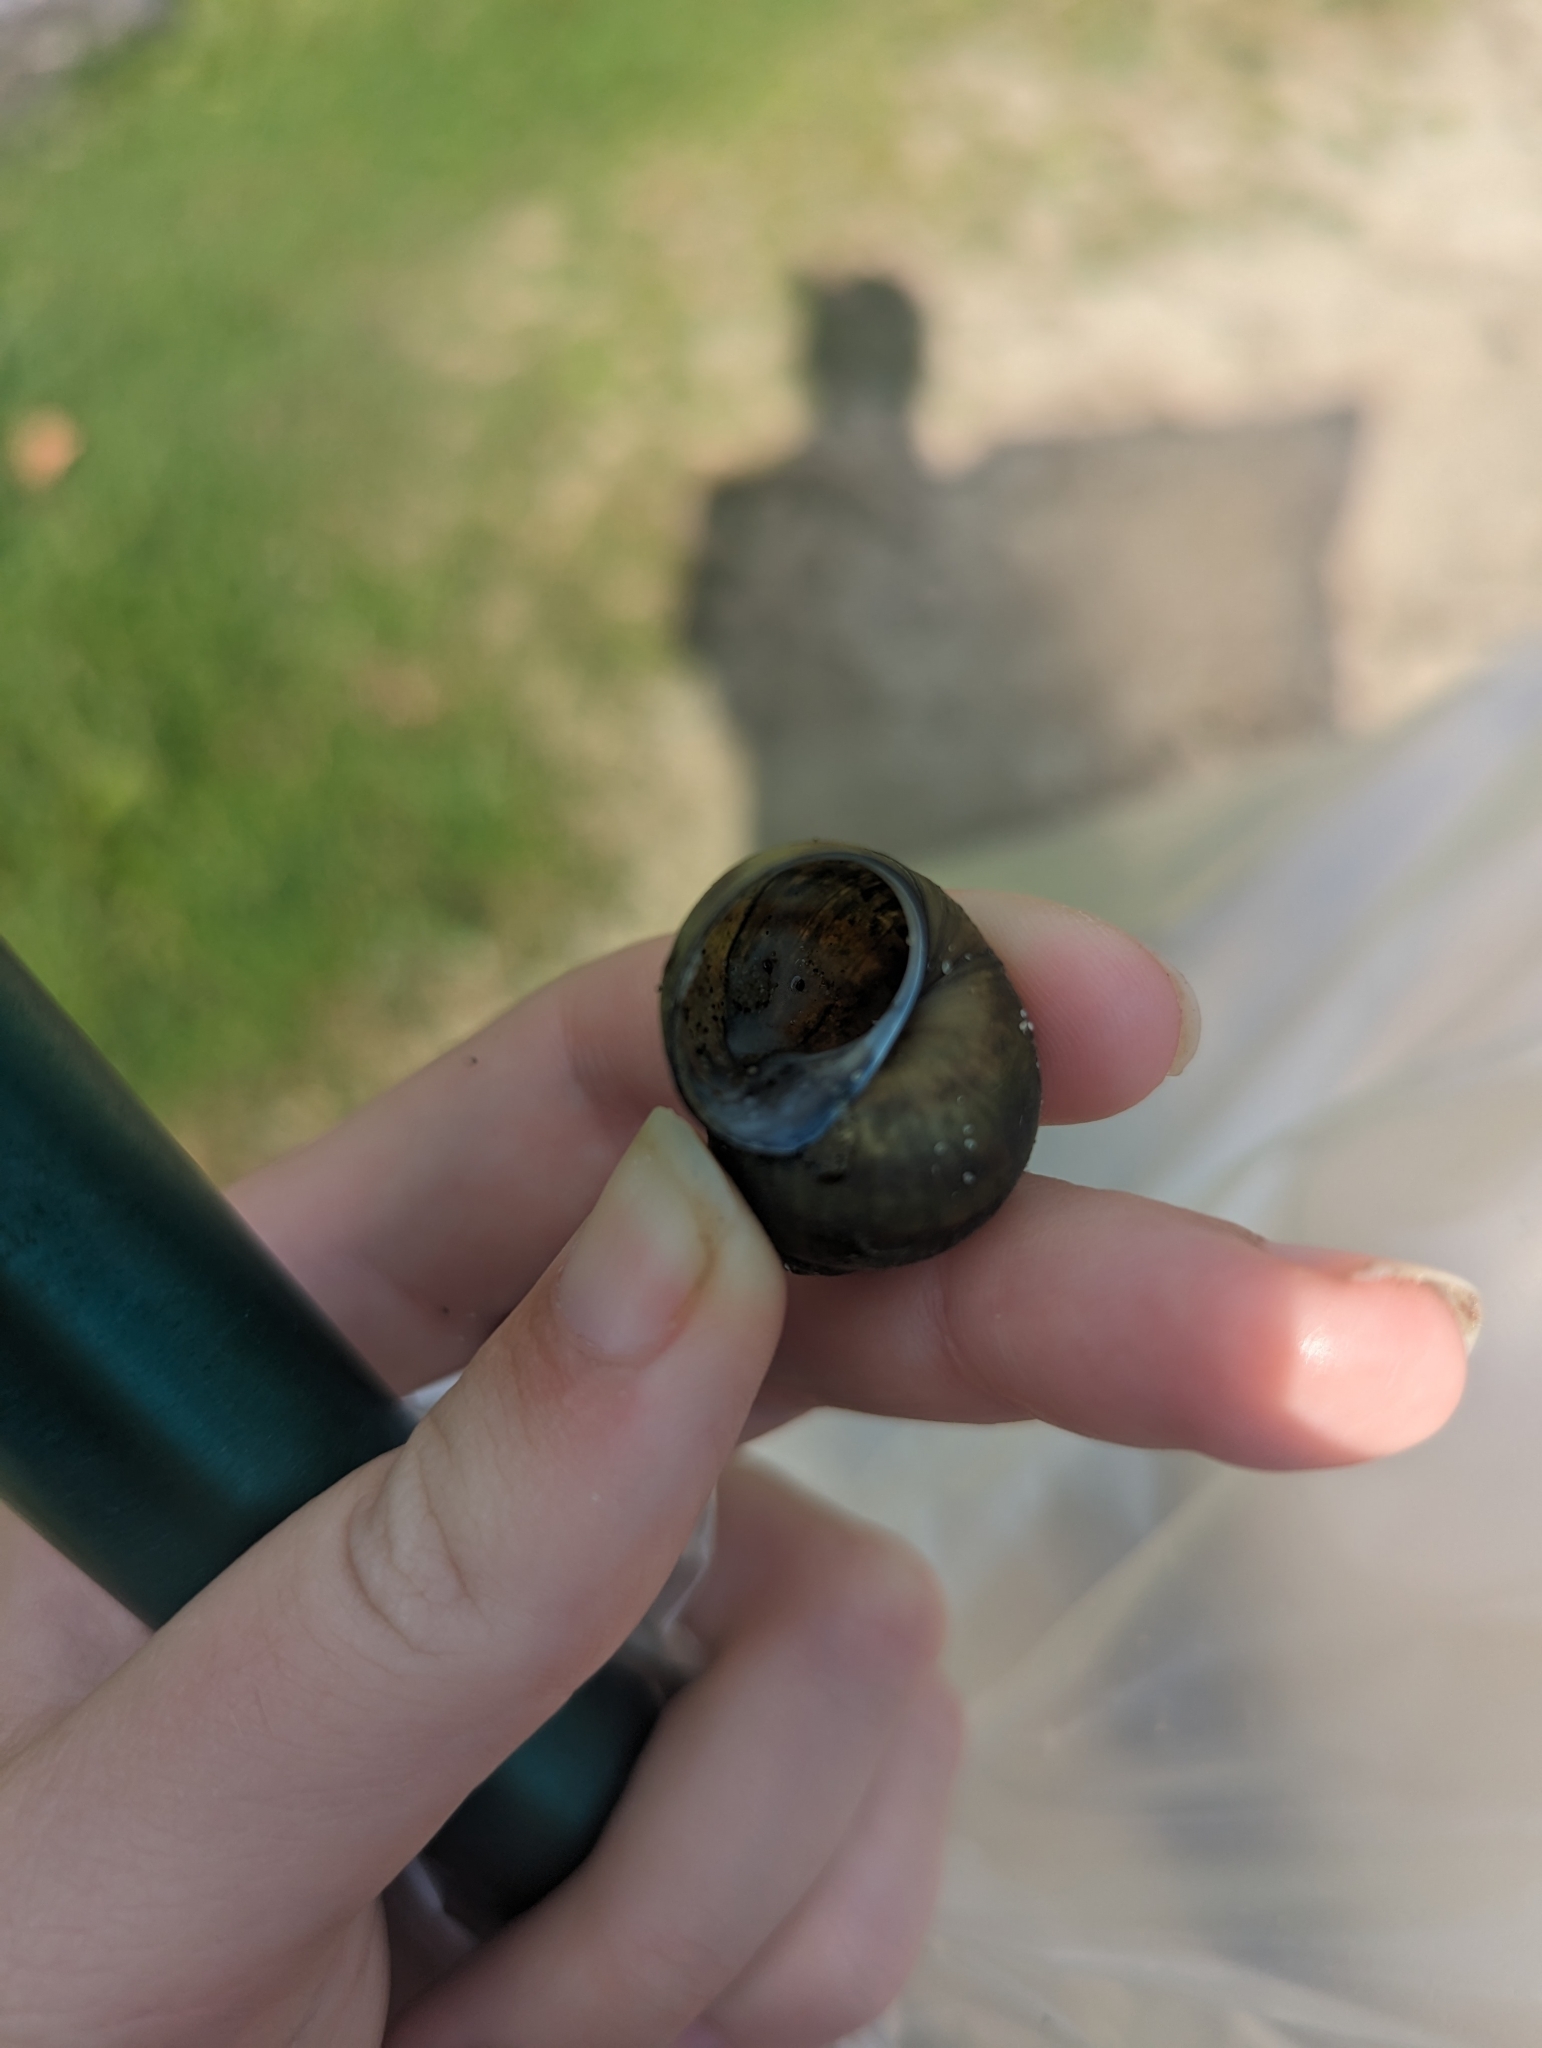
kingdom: Animalia
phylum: Mollusca
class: Gastropoda
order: Architaenioglossa
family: Viviparidae
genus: Cipangopaludina
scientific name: Cipangopaludina chinensis
